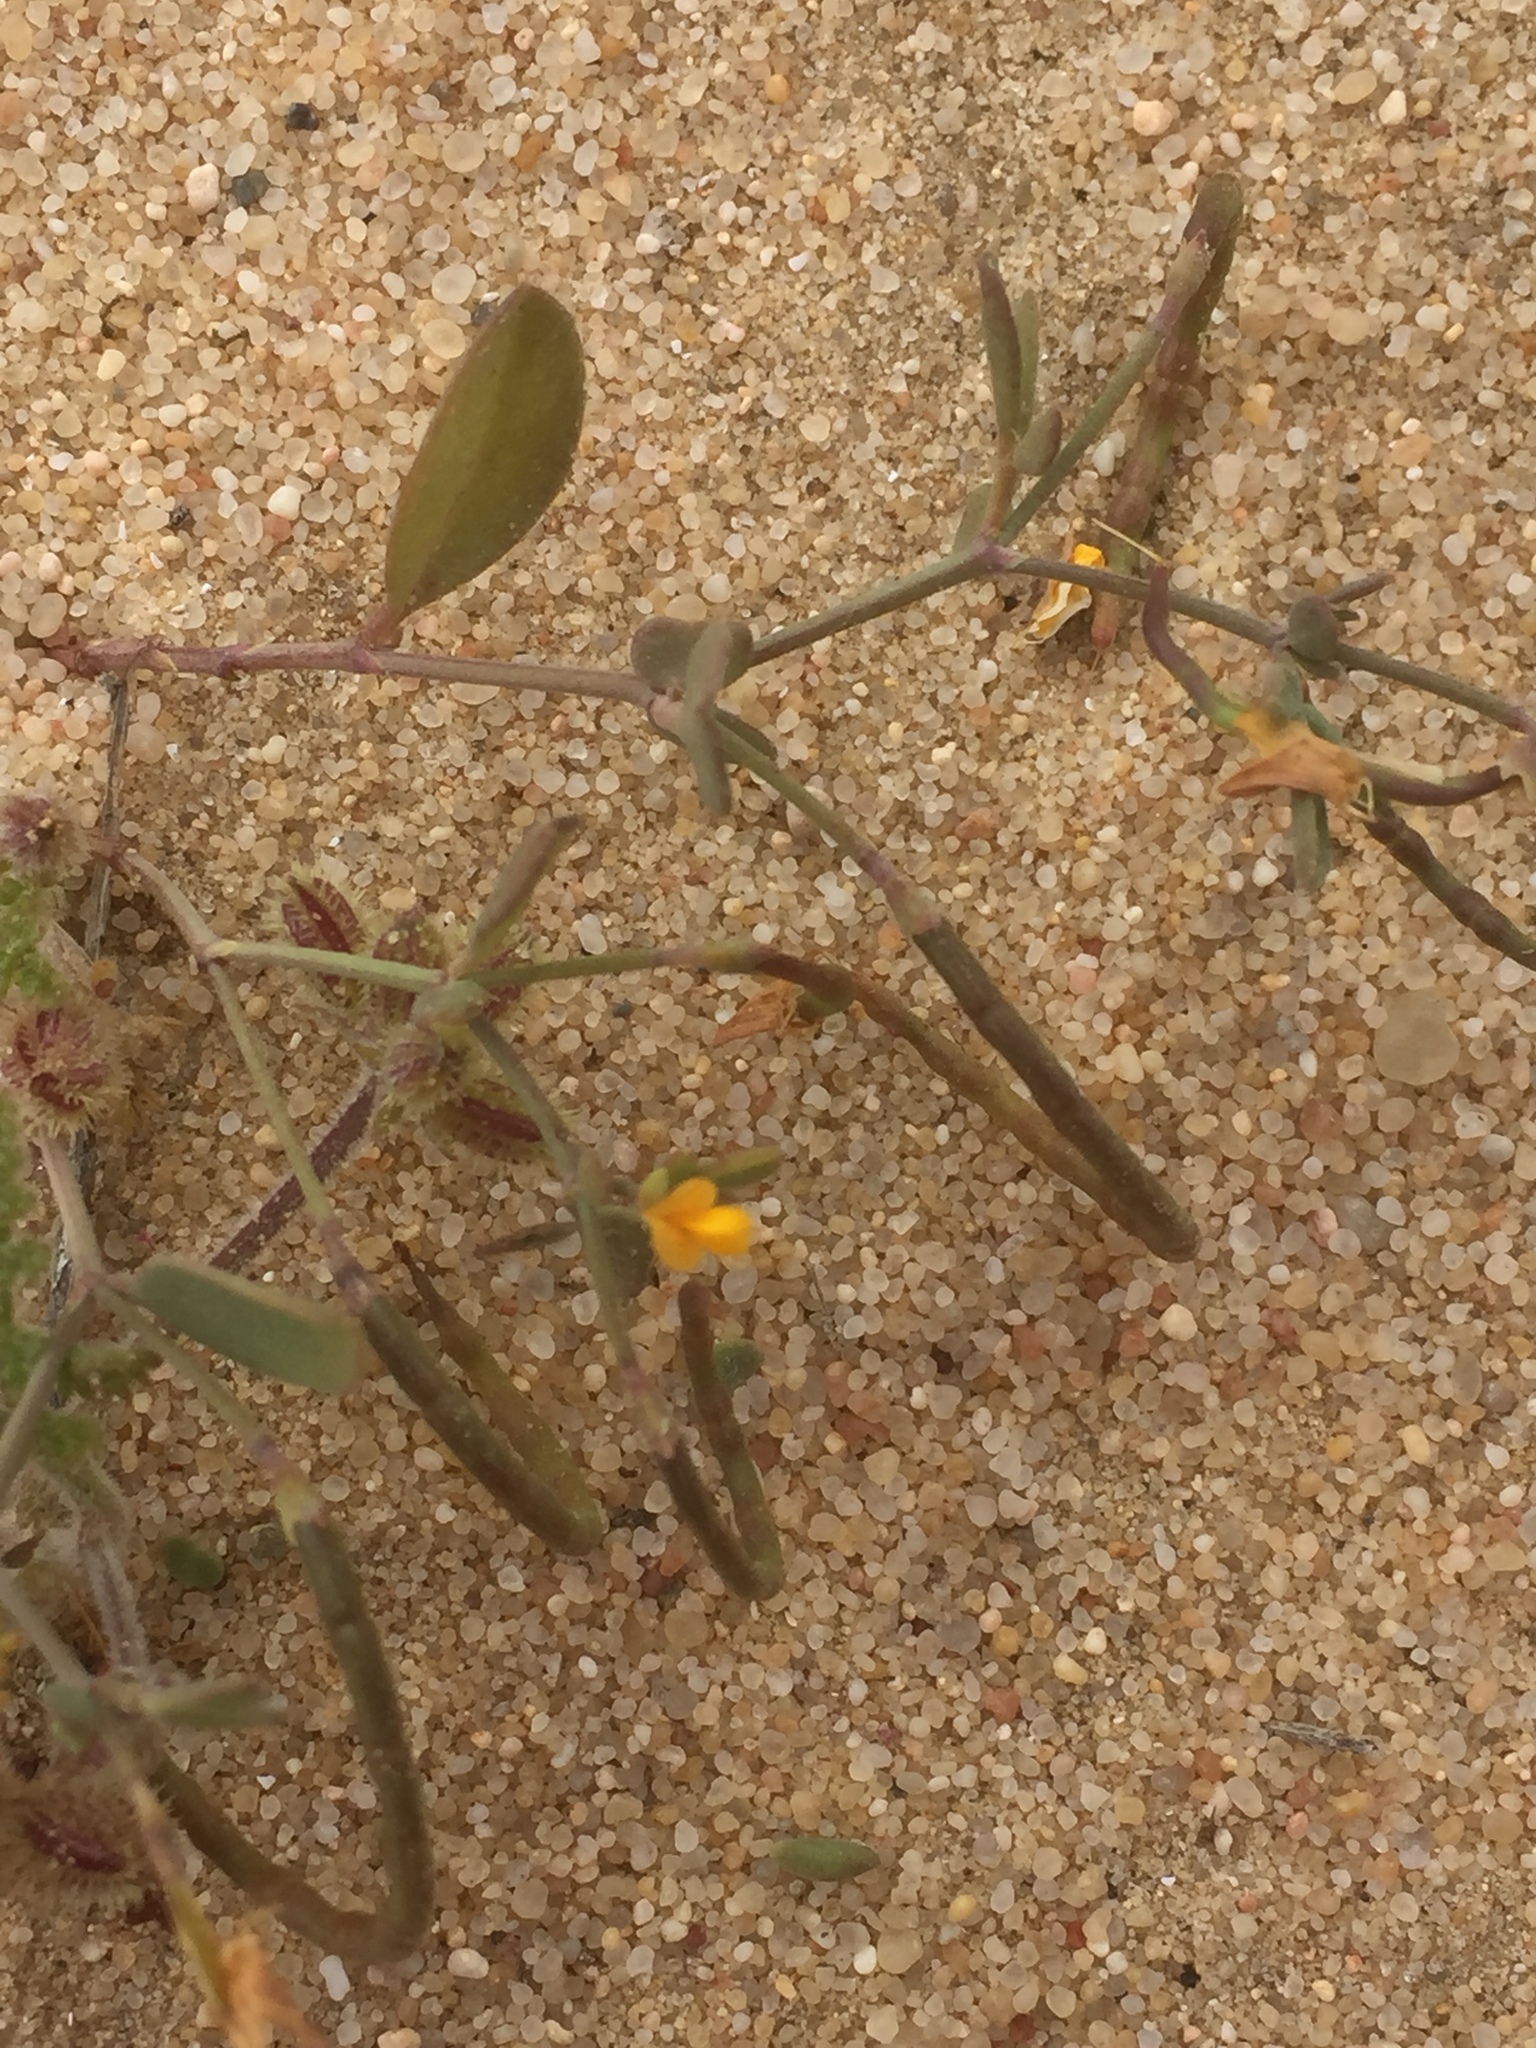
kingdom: Plantae
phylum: Tracheophyta
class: Magnoliopsida
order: Fabales
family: Fabaceae
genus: Coronilla
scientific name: Coronilla repanda
